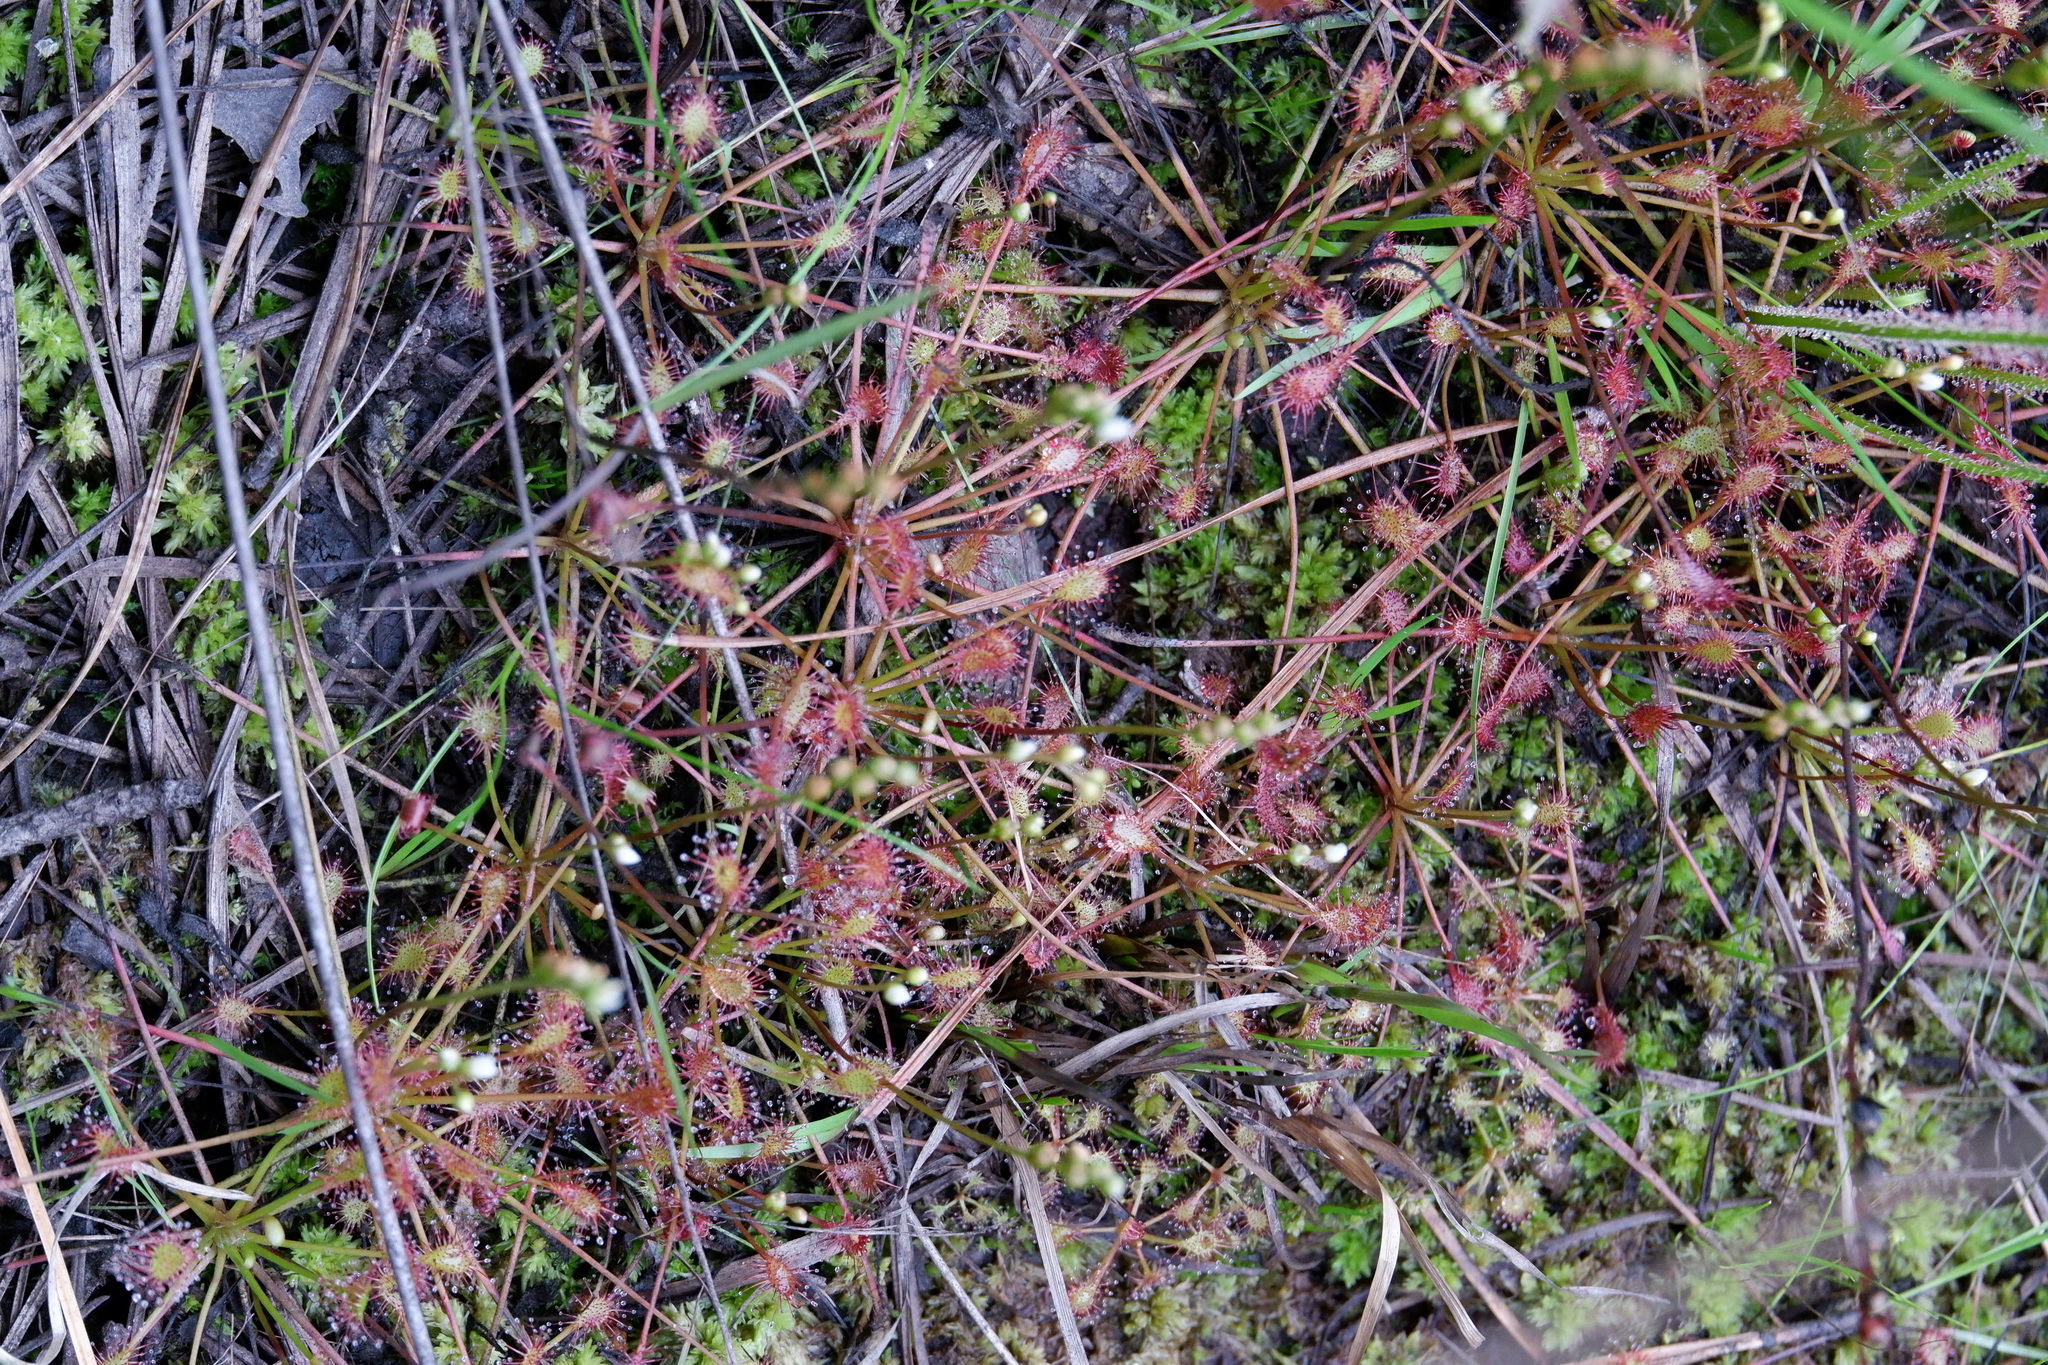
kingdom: Plantae
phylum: Tracheophyta
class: Magnoliopsida
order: Caryophyllales
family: Droseraceae
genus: Drosera
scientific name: Drosera intermedia
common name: Oblong-leaved sundew
